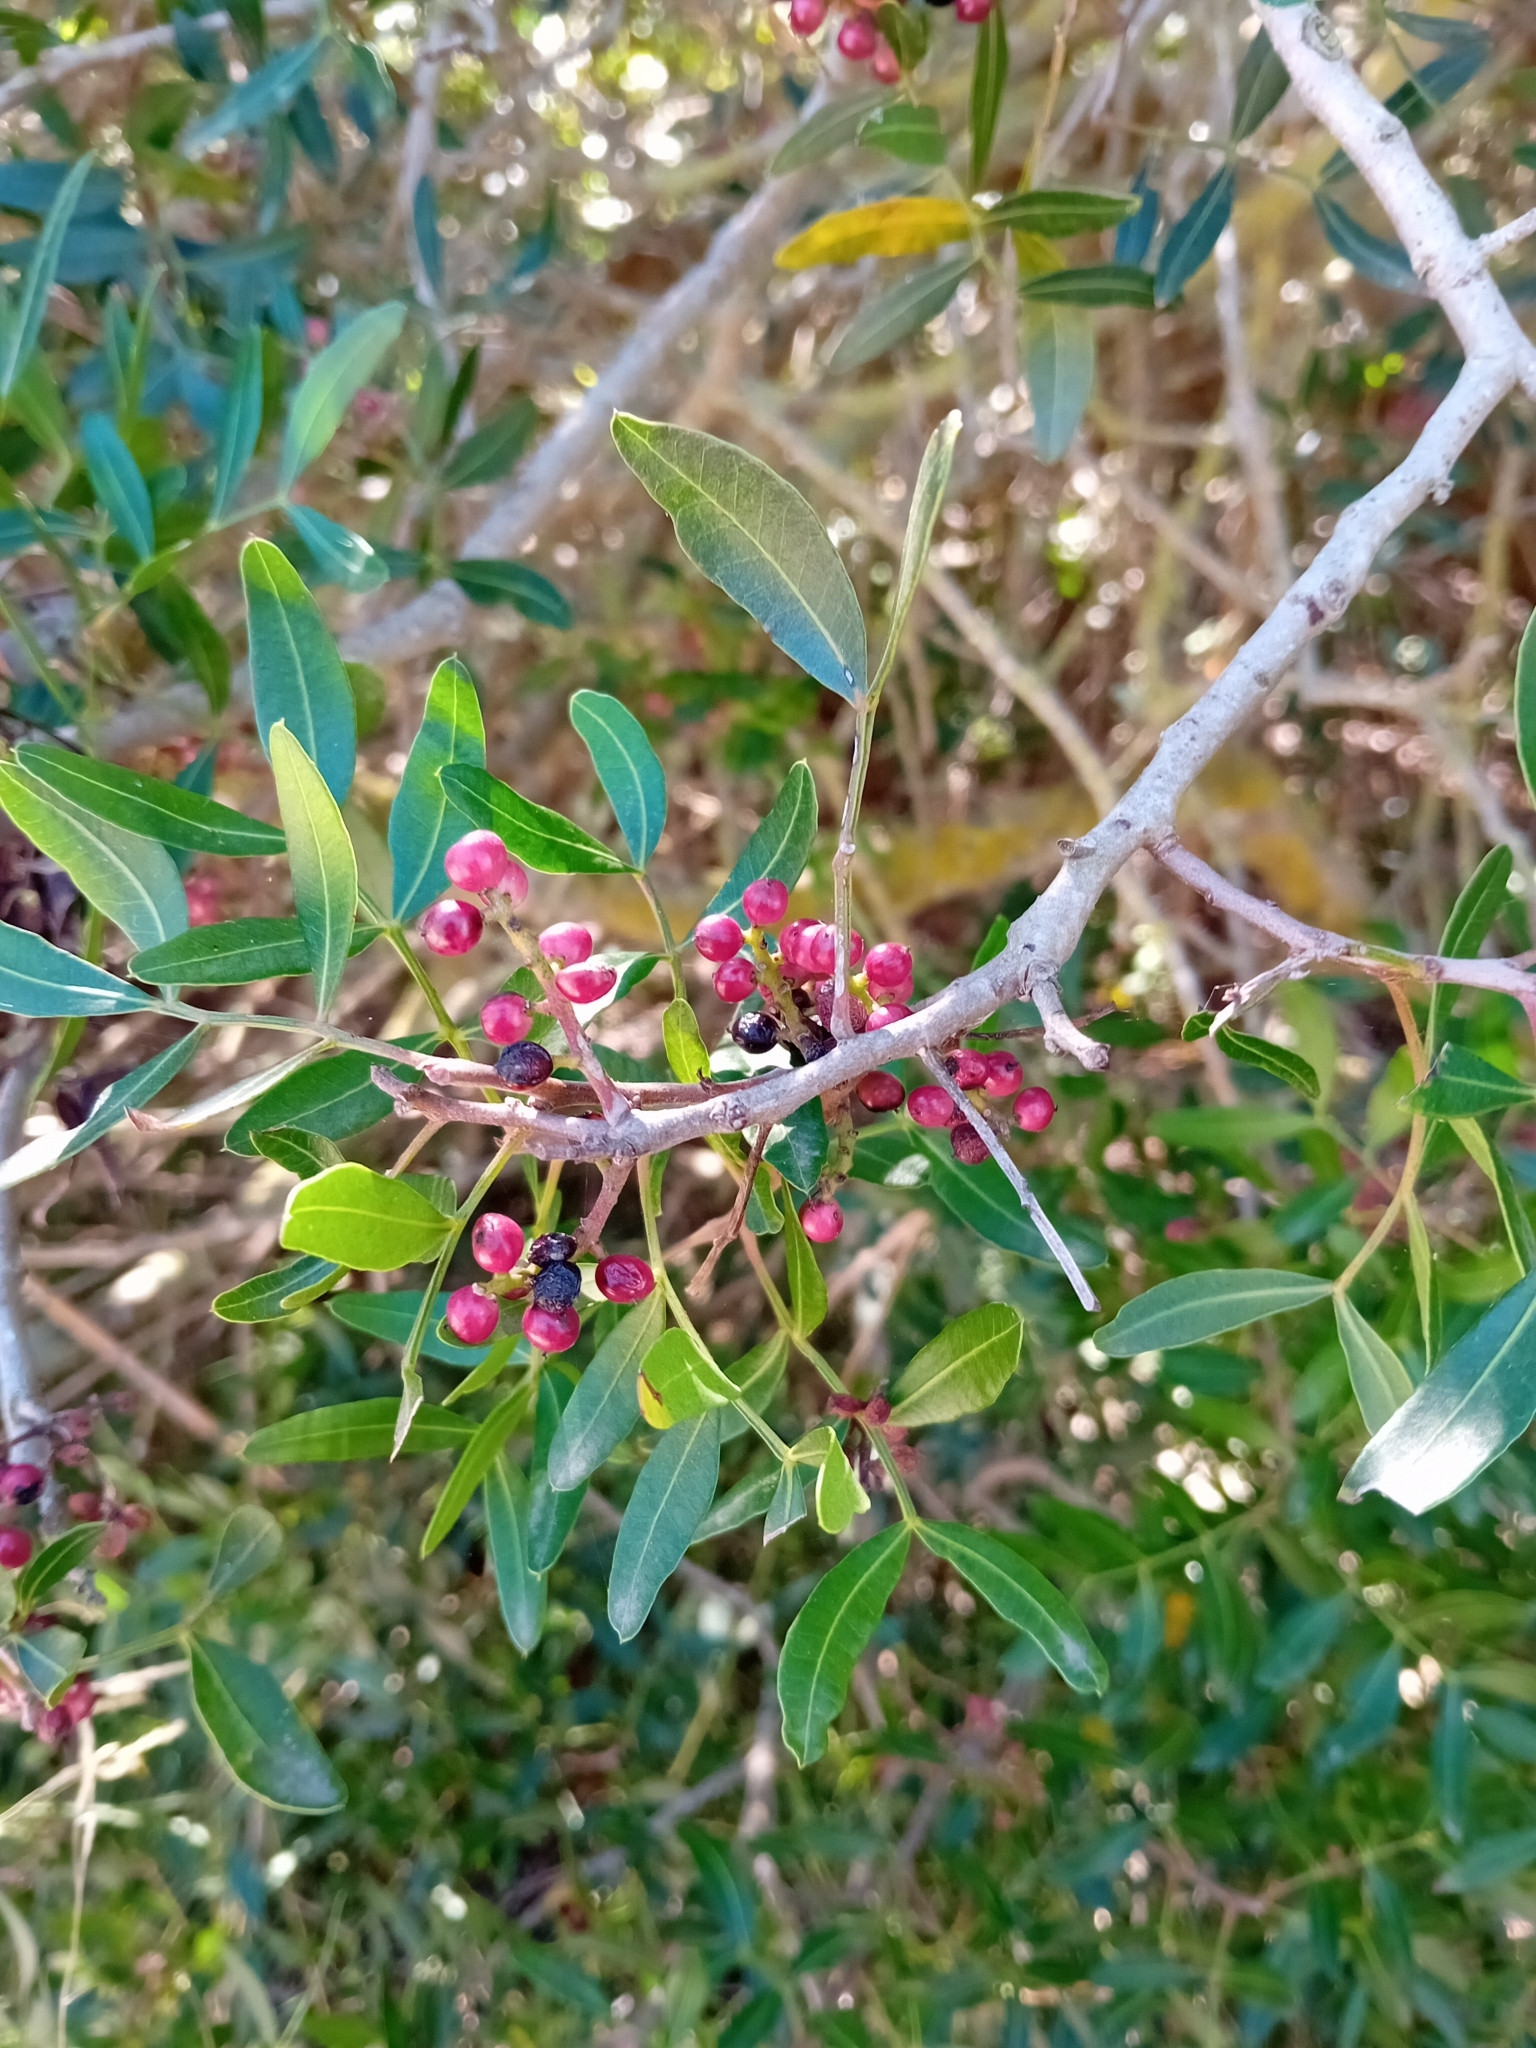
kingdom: Plantae
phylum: Tracheophyta
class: Magnoliopsida
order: Sapindales
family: Anacardiaceae
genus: Pistacia
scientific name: Pistacia lentiscus
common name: Lentisk
